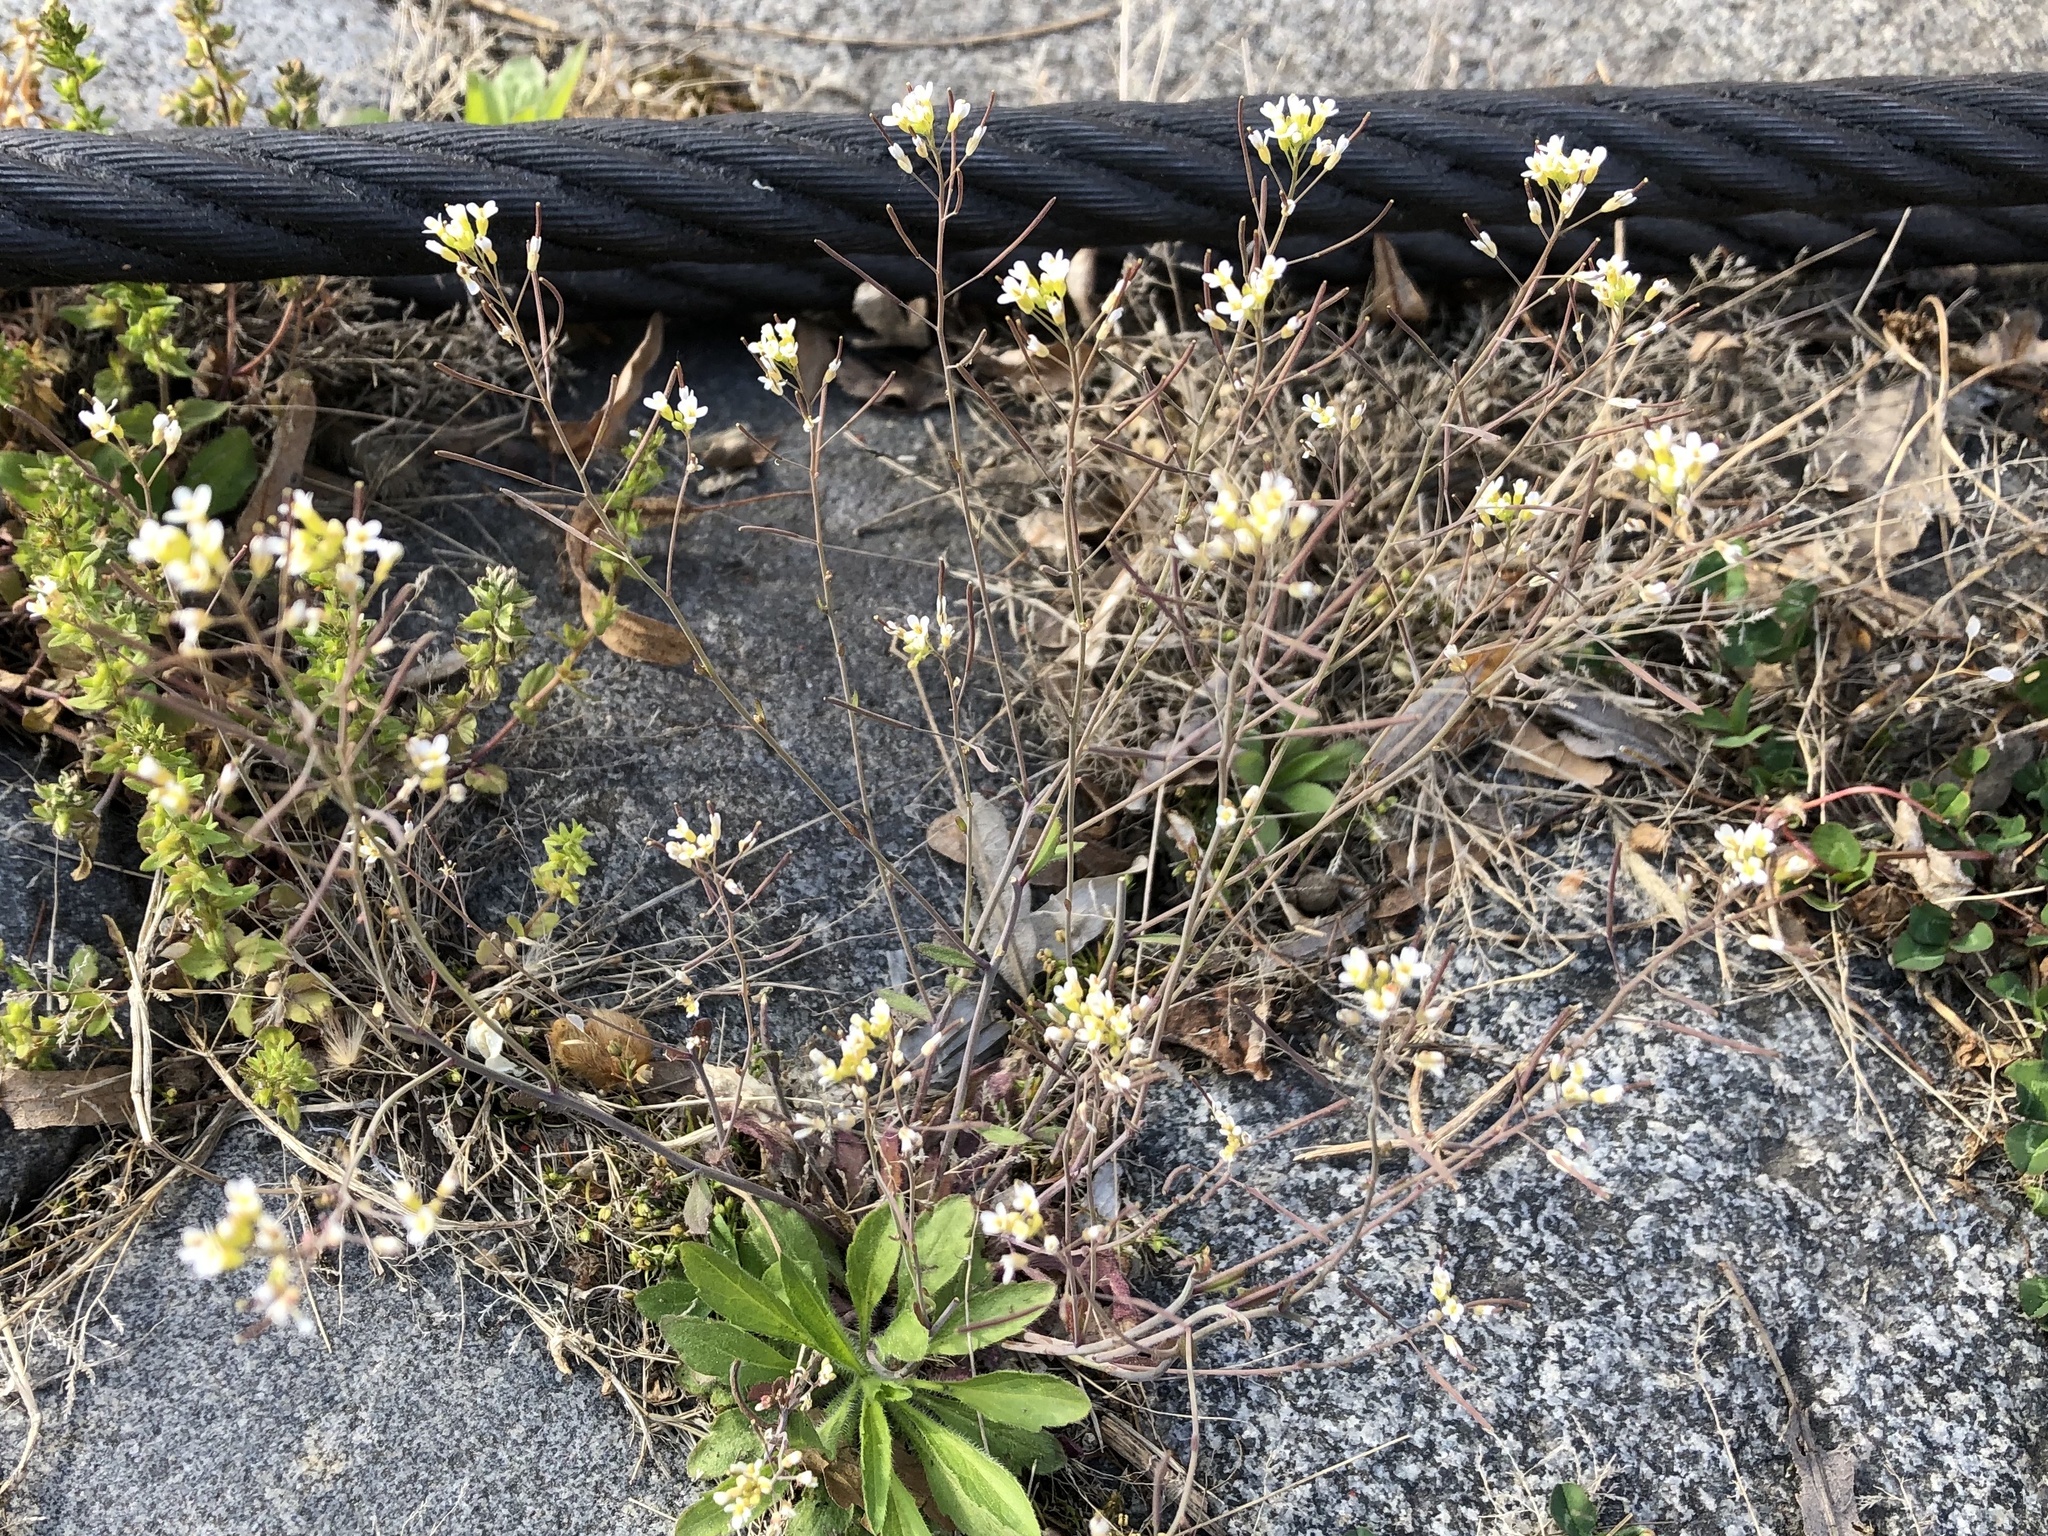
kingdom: Plantae
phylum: Tracheophyta
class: Magnoliopsida
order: Brassicales
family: Brassicaceae
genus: Arabidopsis
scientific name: Arabidopsis thaliana
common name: Thale cress
